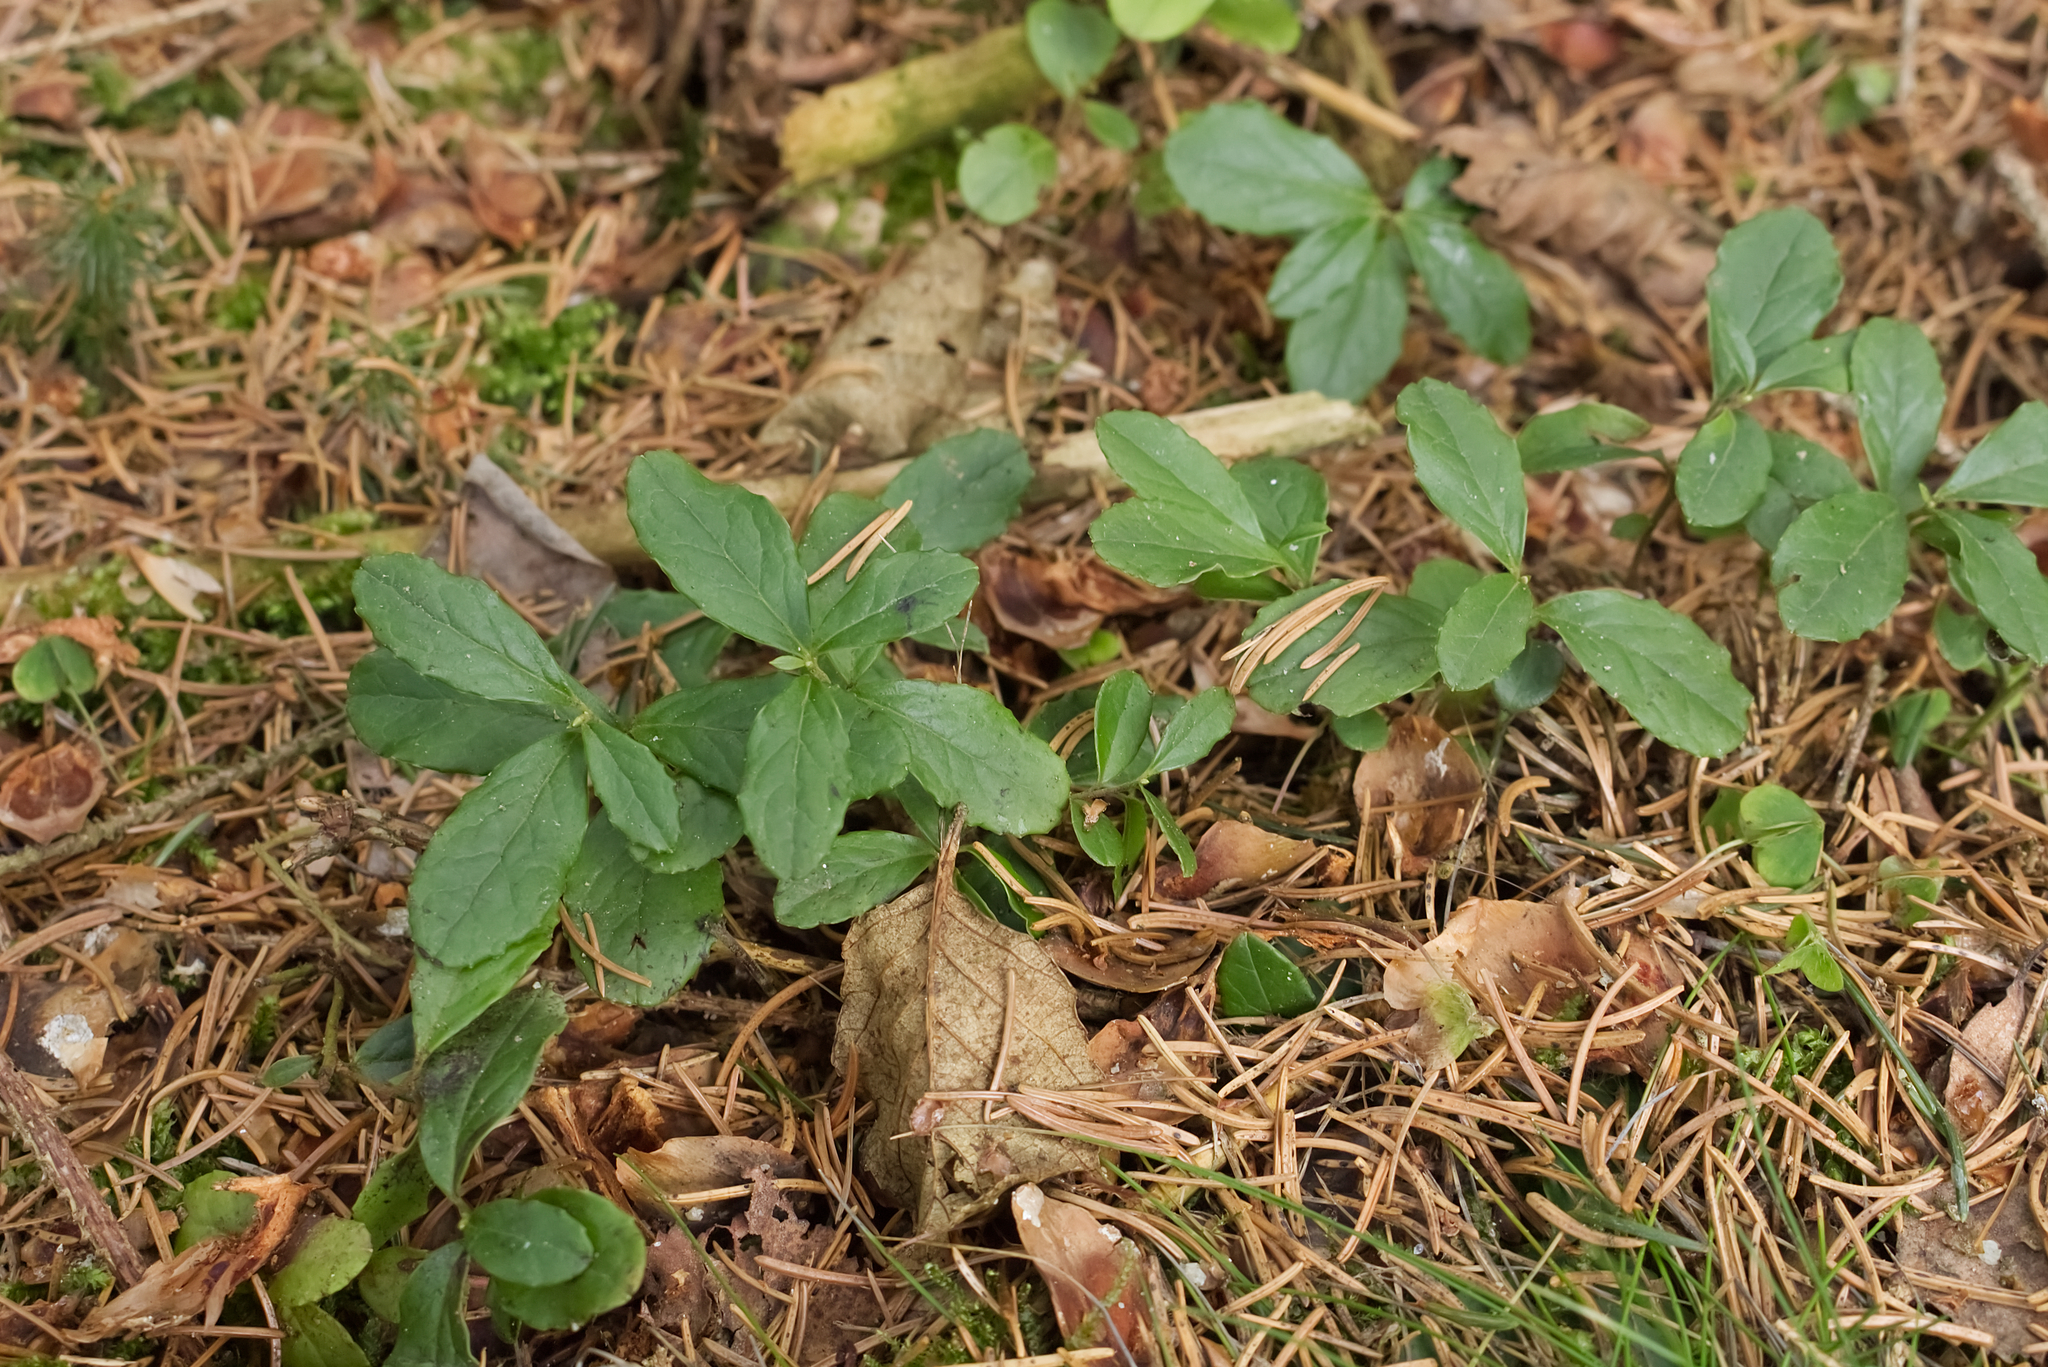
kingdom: Plantae
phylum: Tracheophyta
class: Magnoliopsida
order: Ericales
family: Ericaceae
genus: Vaccinium
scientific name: Vaccinium vitis-idaea
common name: Cowberry
